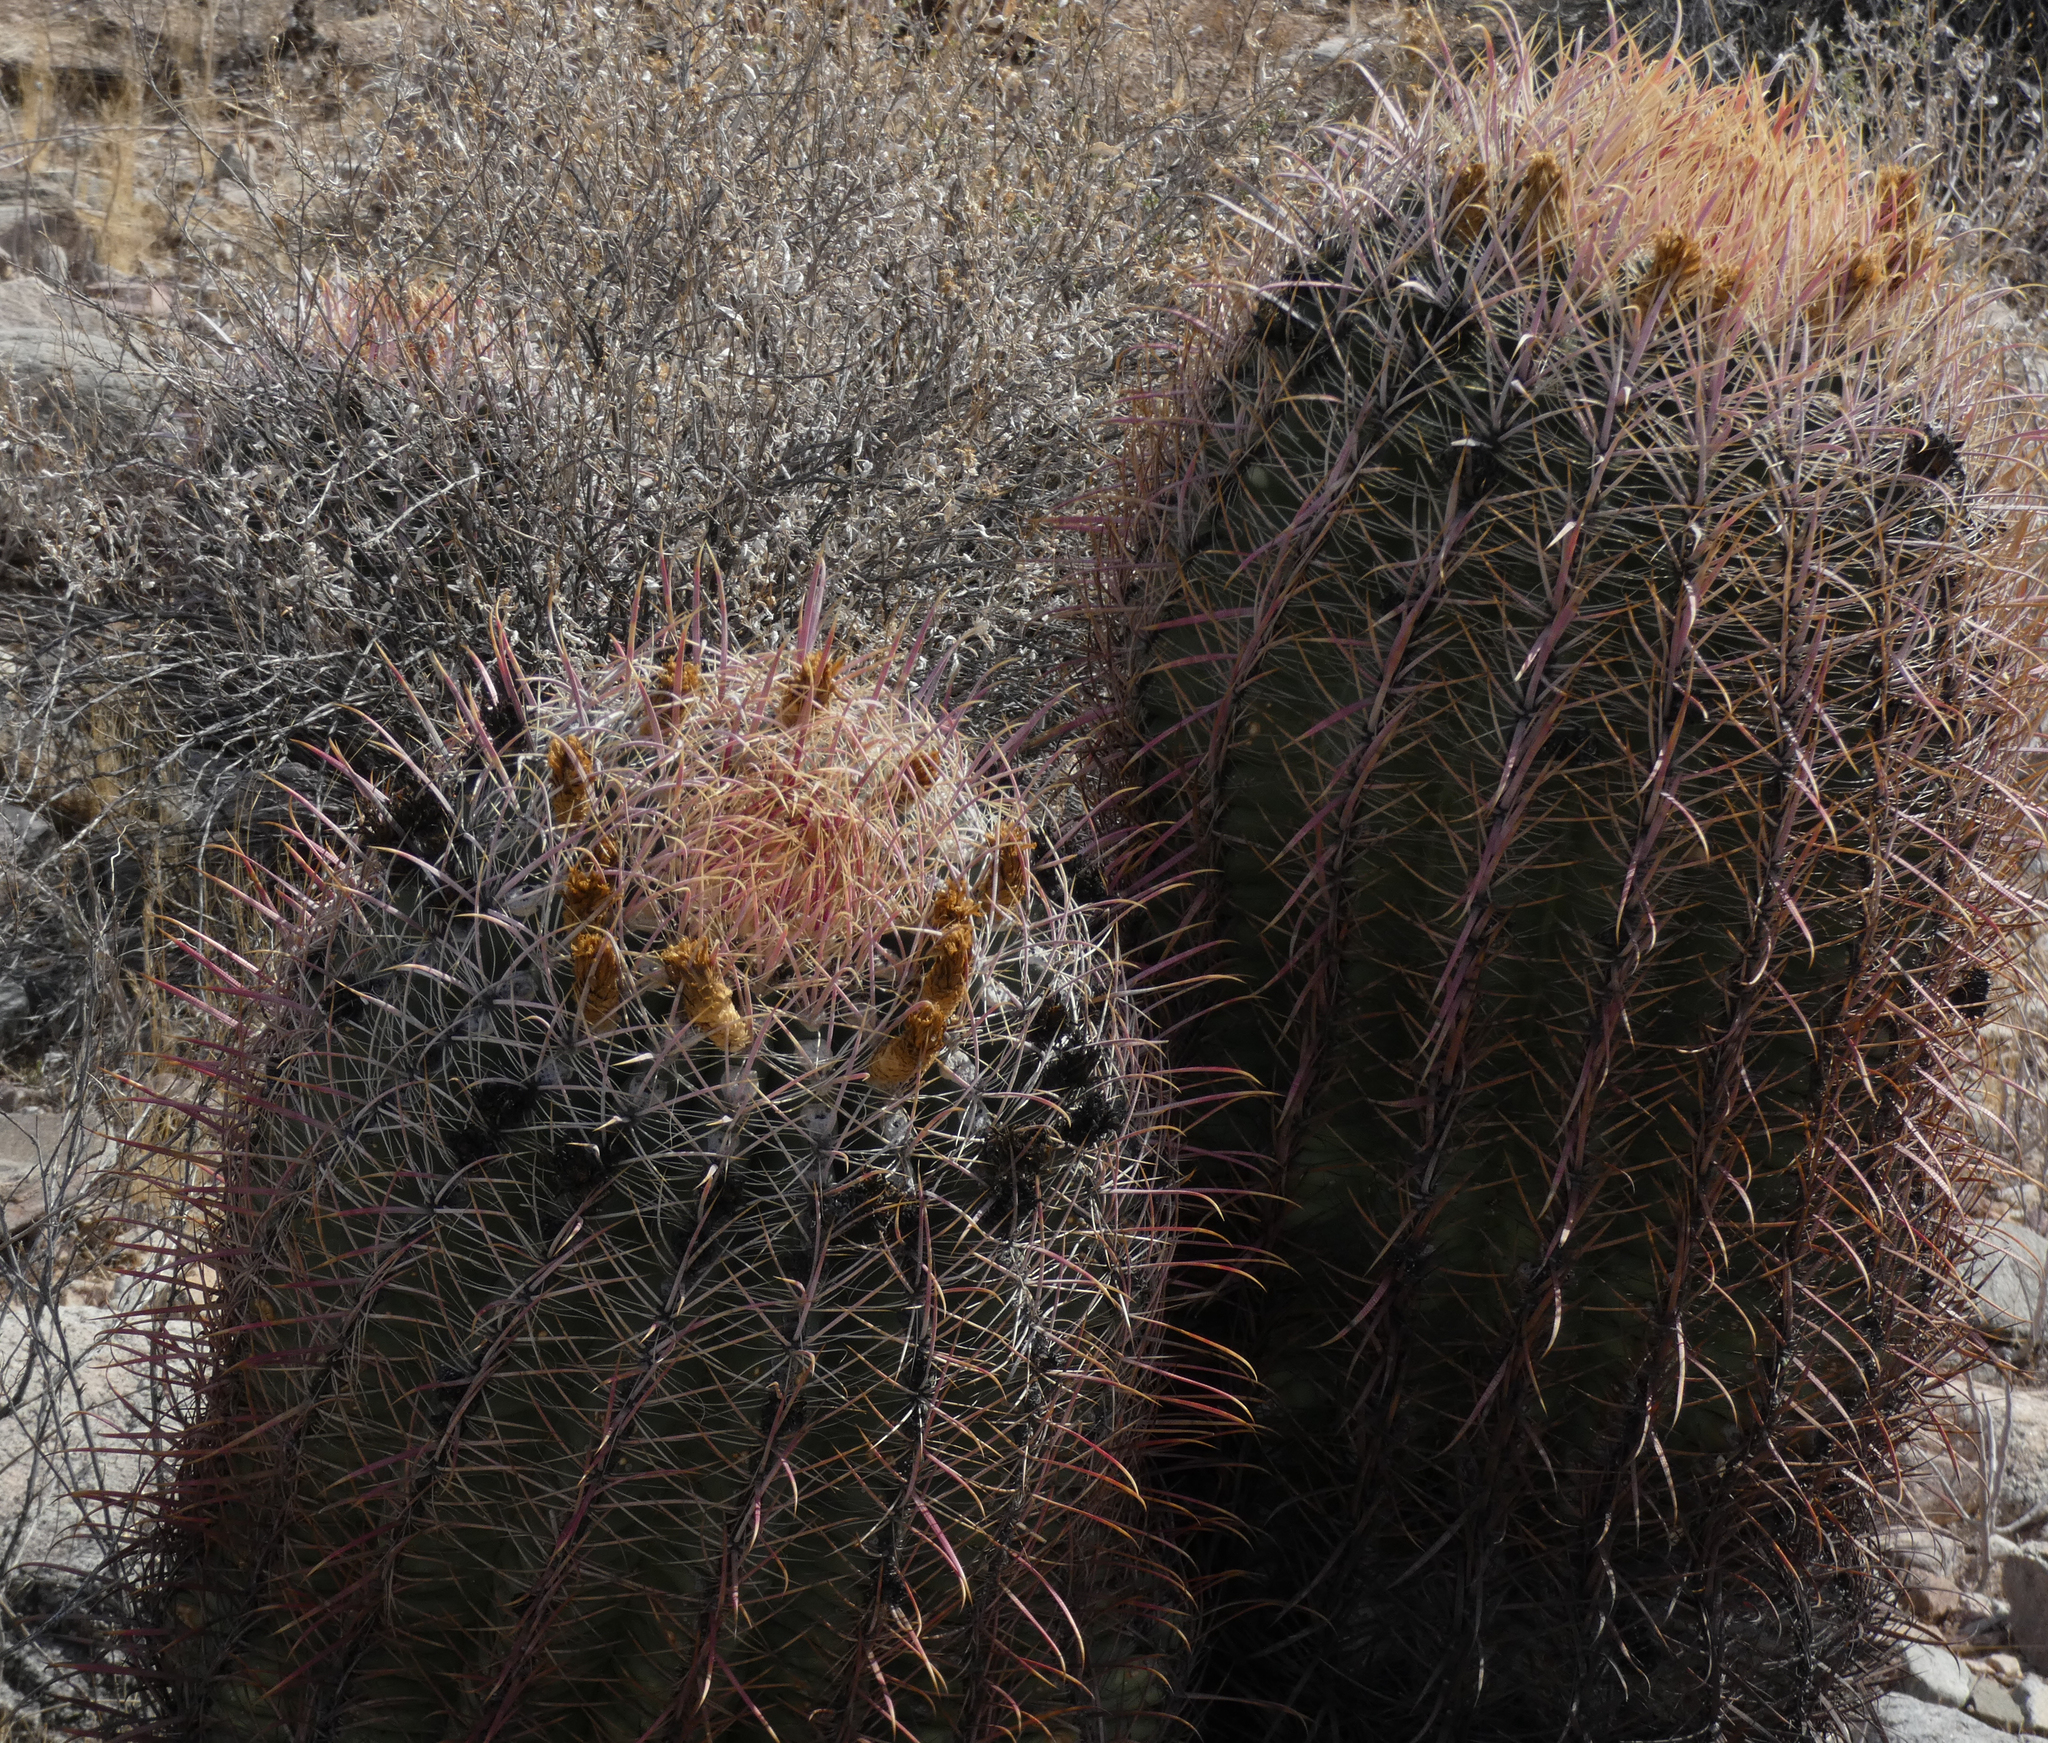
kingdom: Plantae
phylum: Tracheophyta
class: Magnoliopsida
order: Caryophyllales
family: Cactaceae
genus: Ferocactus
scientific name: Ferocactus cylindraceus
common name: California barrel cactus
